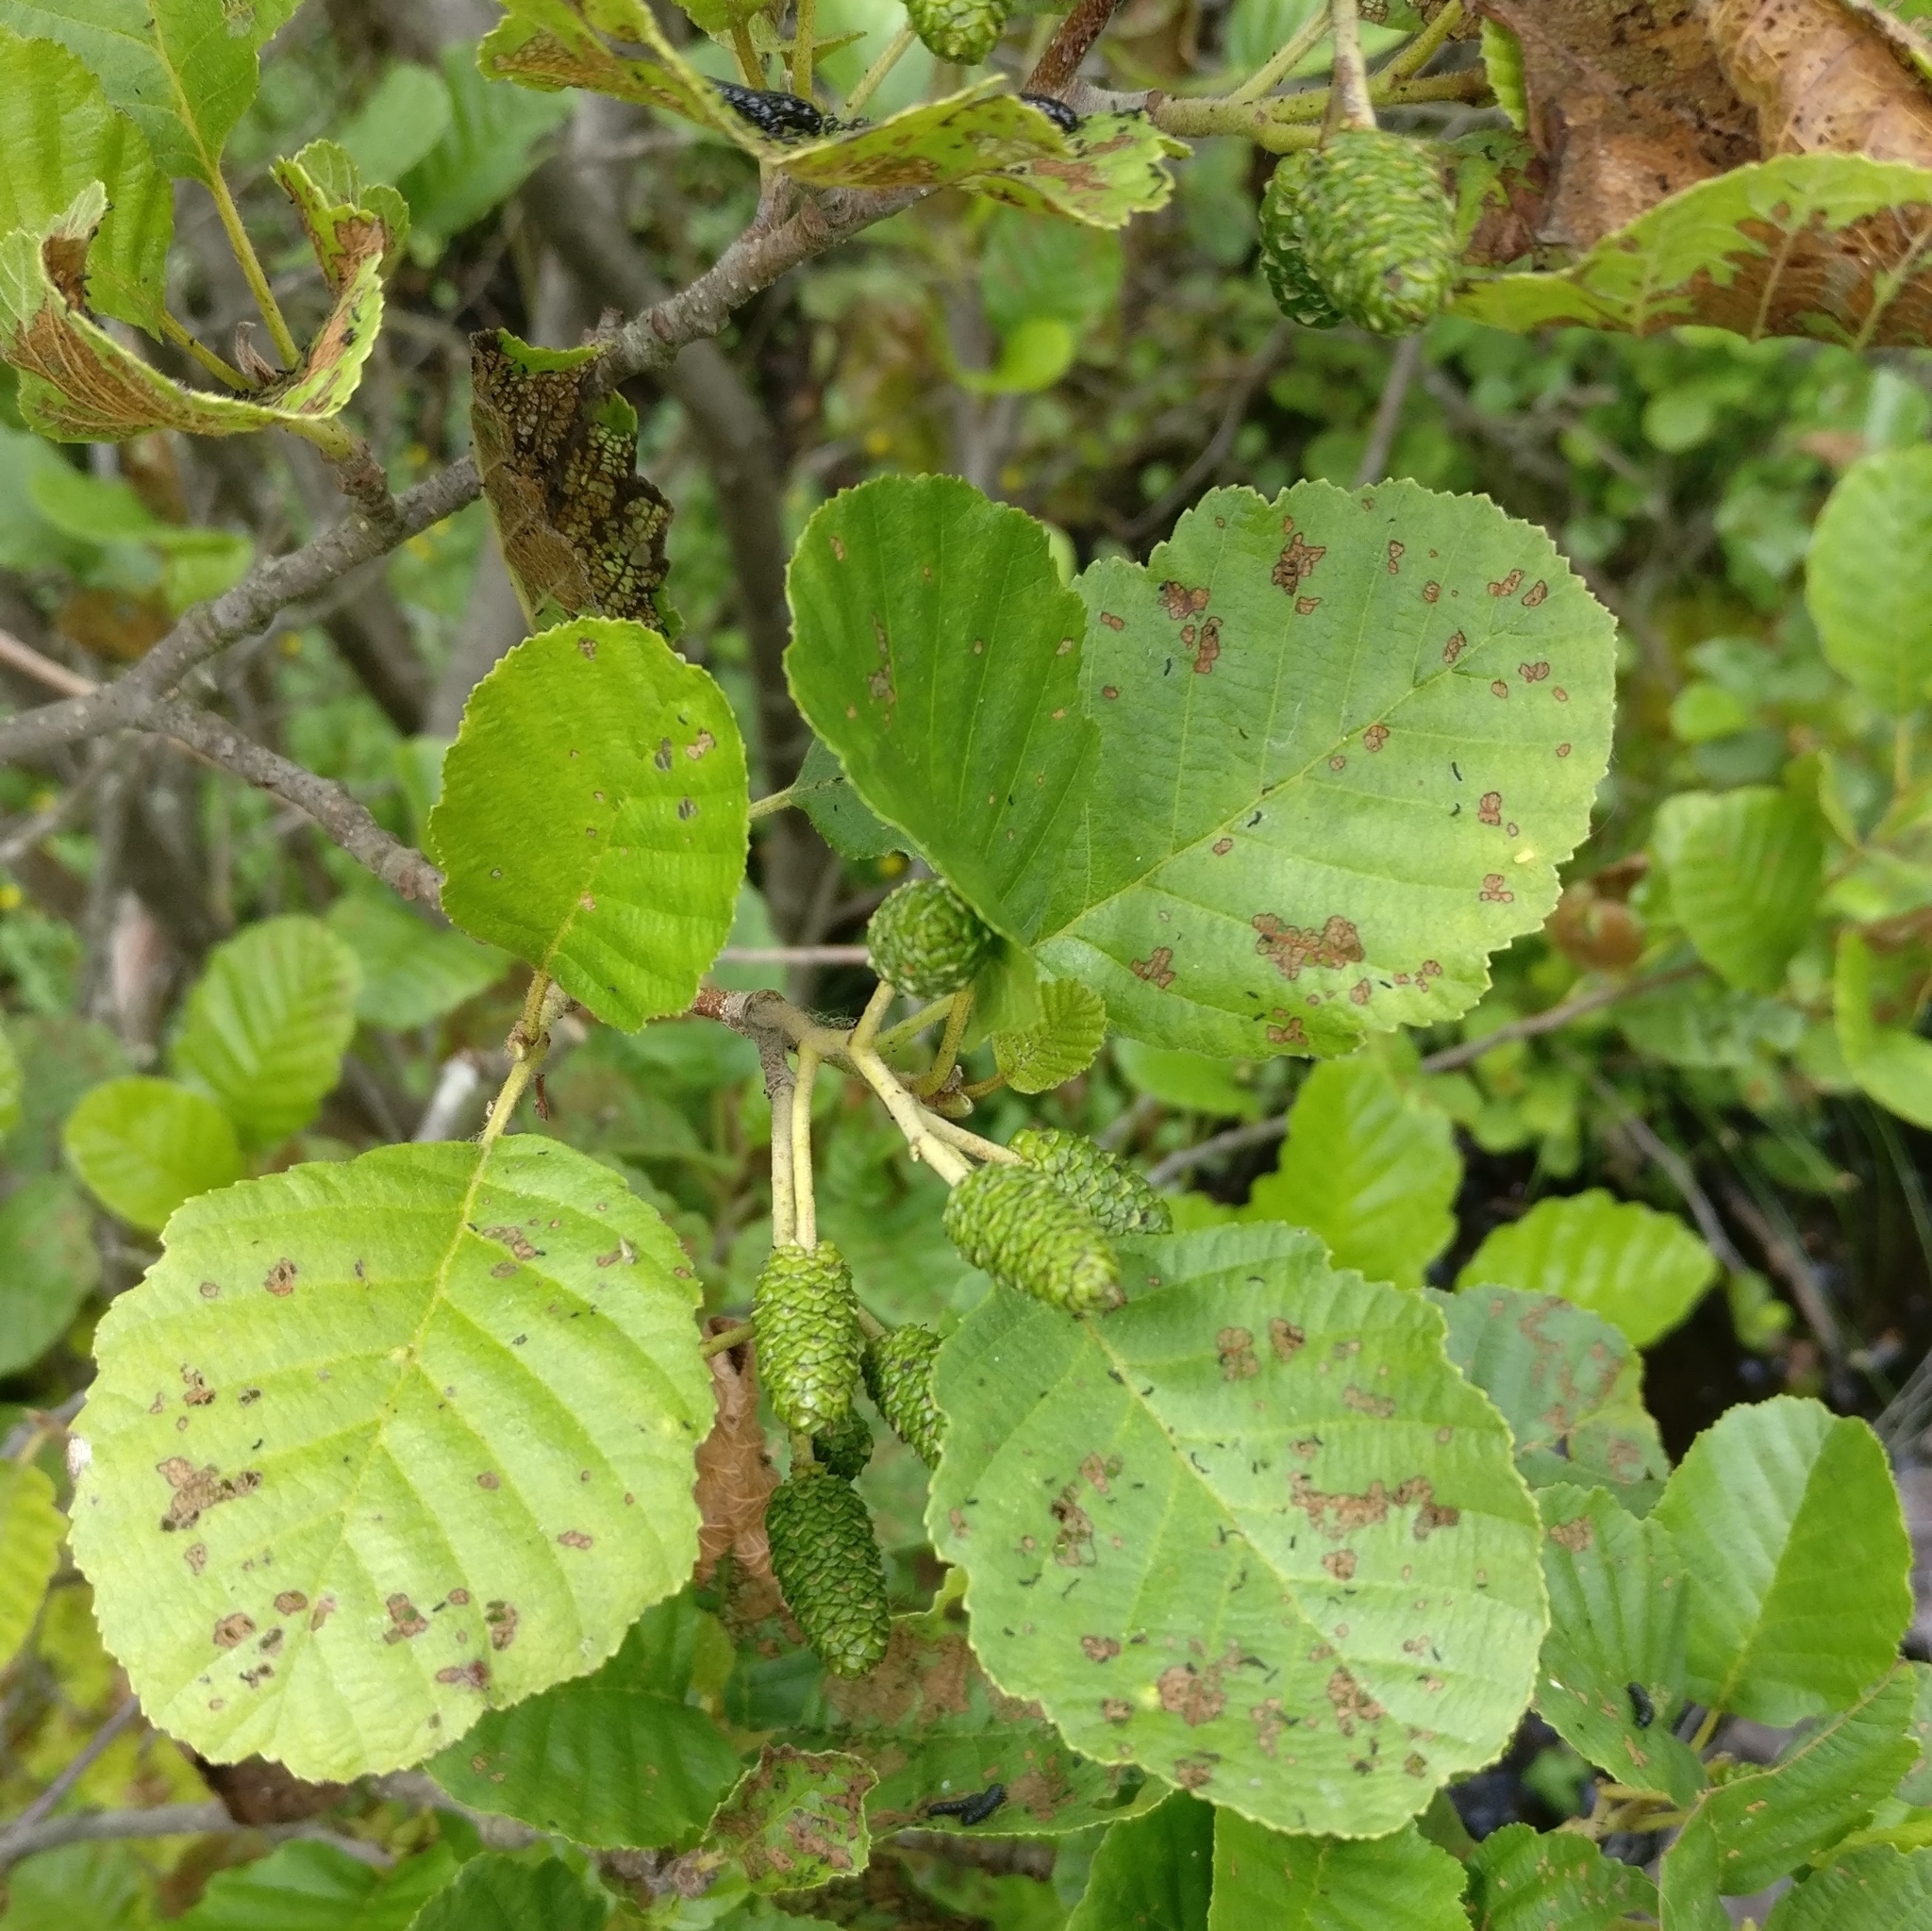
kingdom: Plantae
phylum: Tracheophyta
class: Magnoliopsida
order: Fagales
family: Betulaceae
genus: Alnus
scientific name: Alnus glutinosa
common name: Black alder
